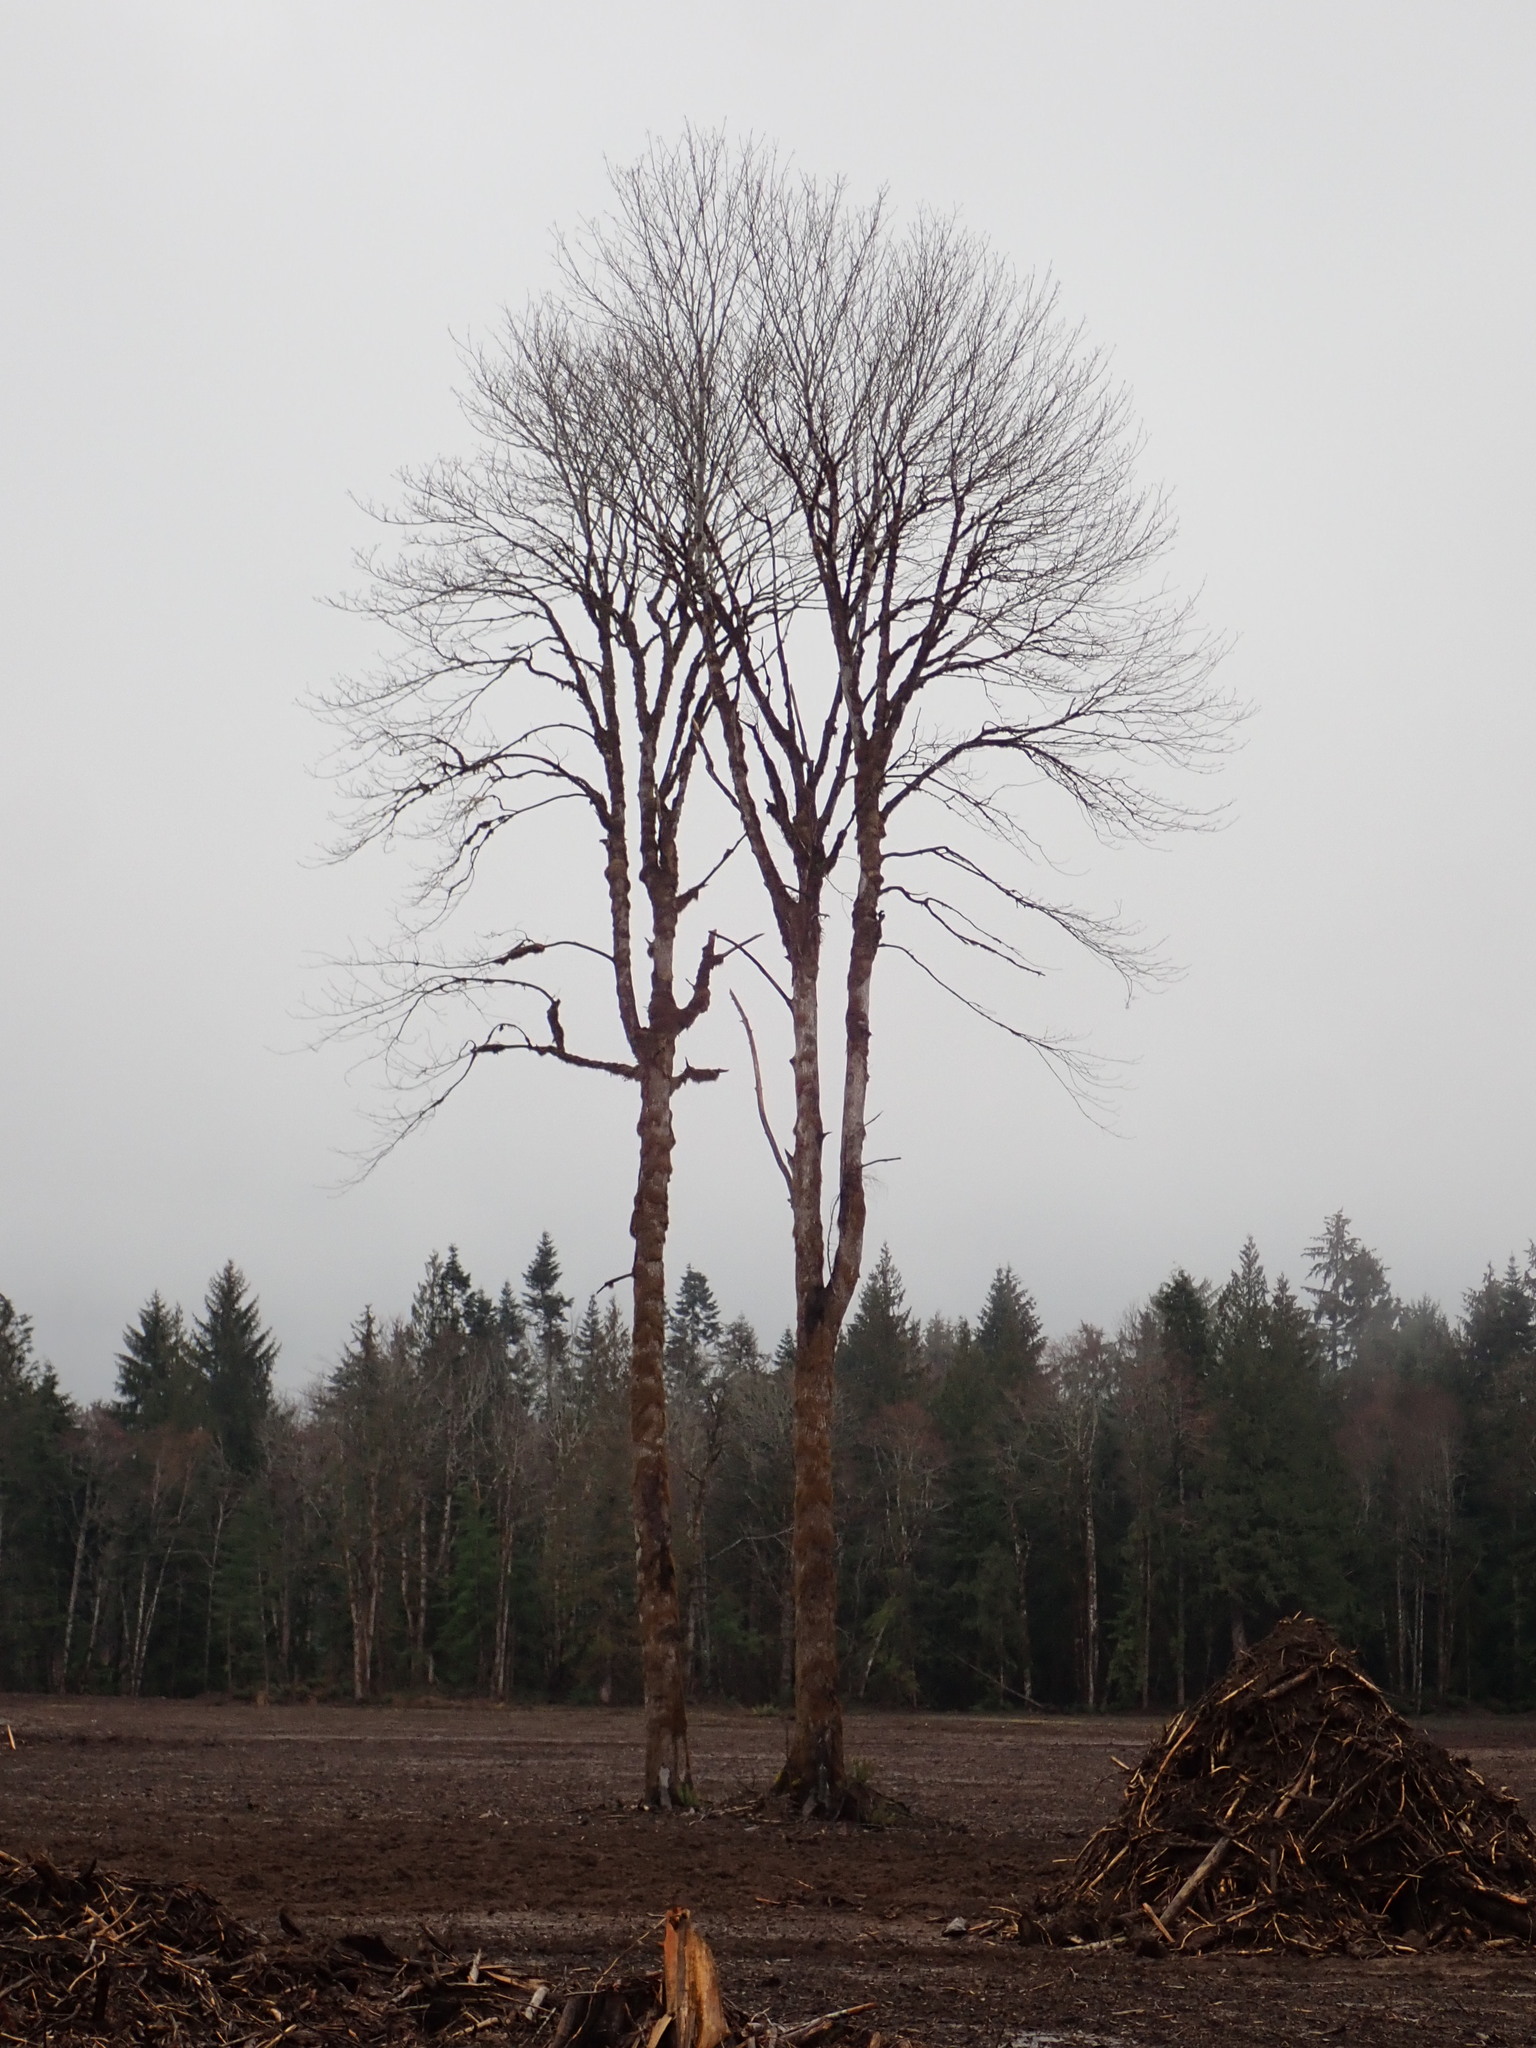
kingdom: Plantae
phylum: Tracheophyta
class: Magnoliopsida
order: Sapindales
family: Sapindaceae
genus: Acer
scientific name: Acer macrophyllum
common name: Oregon maple
